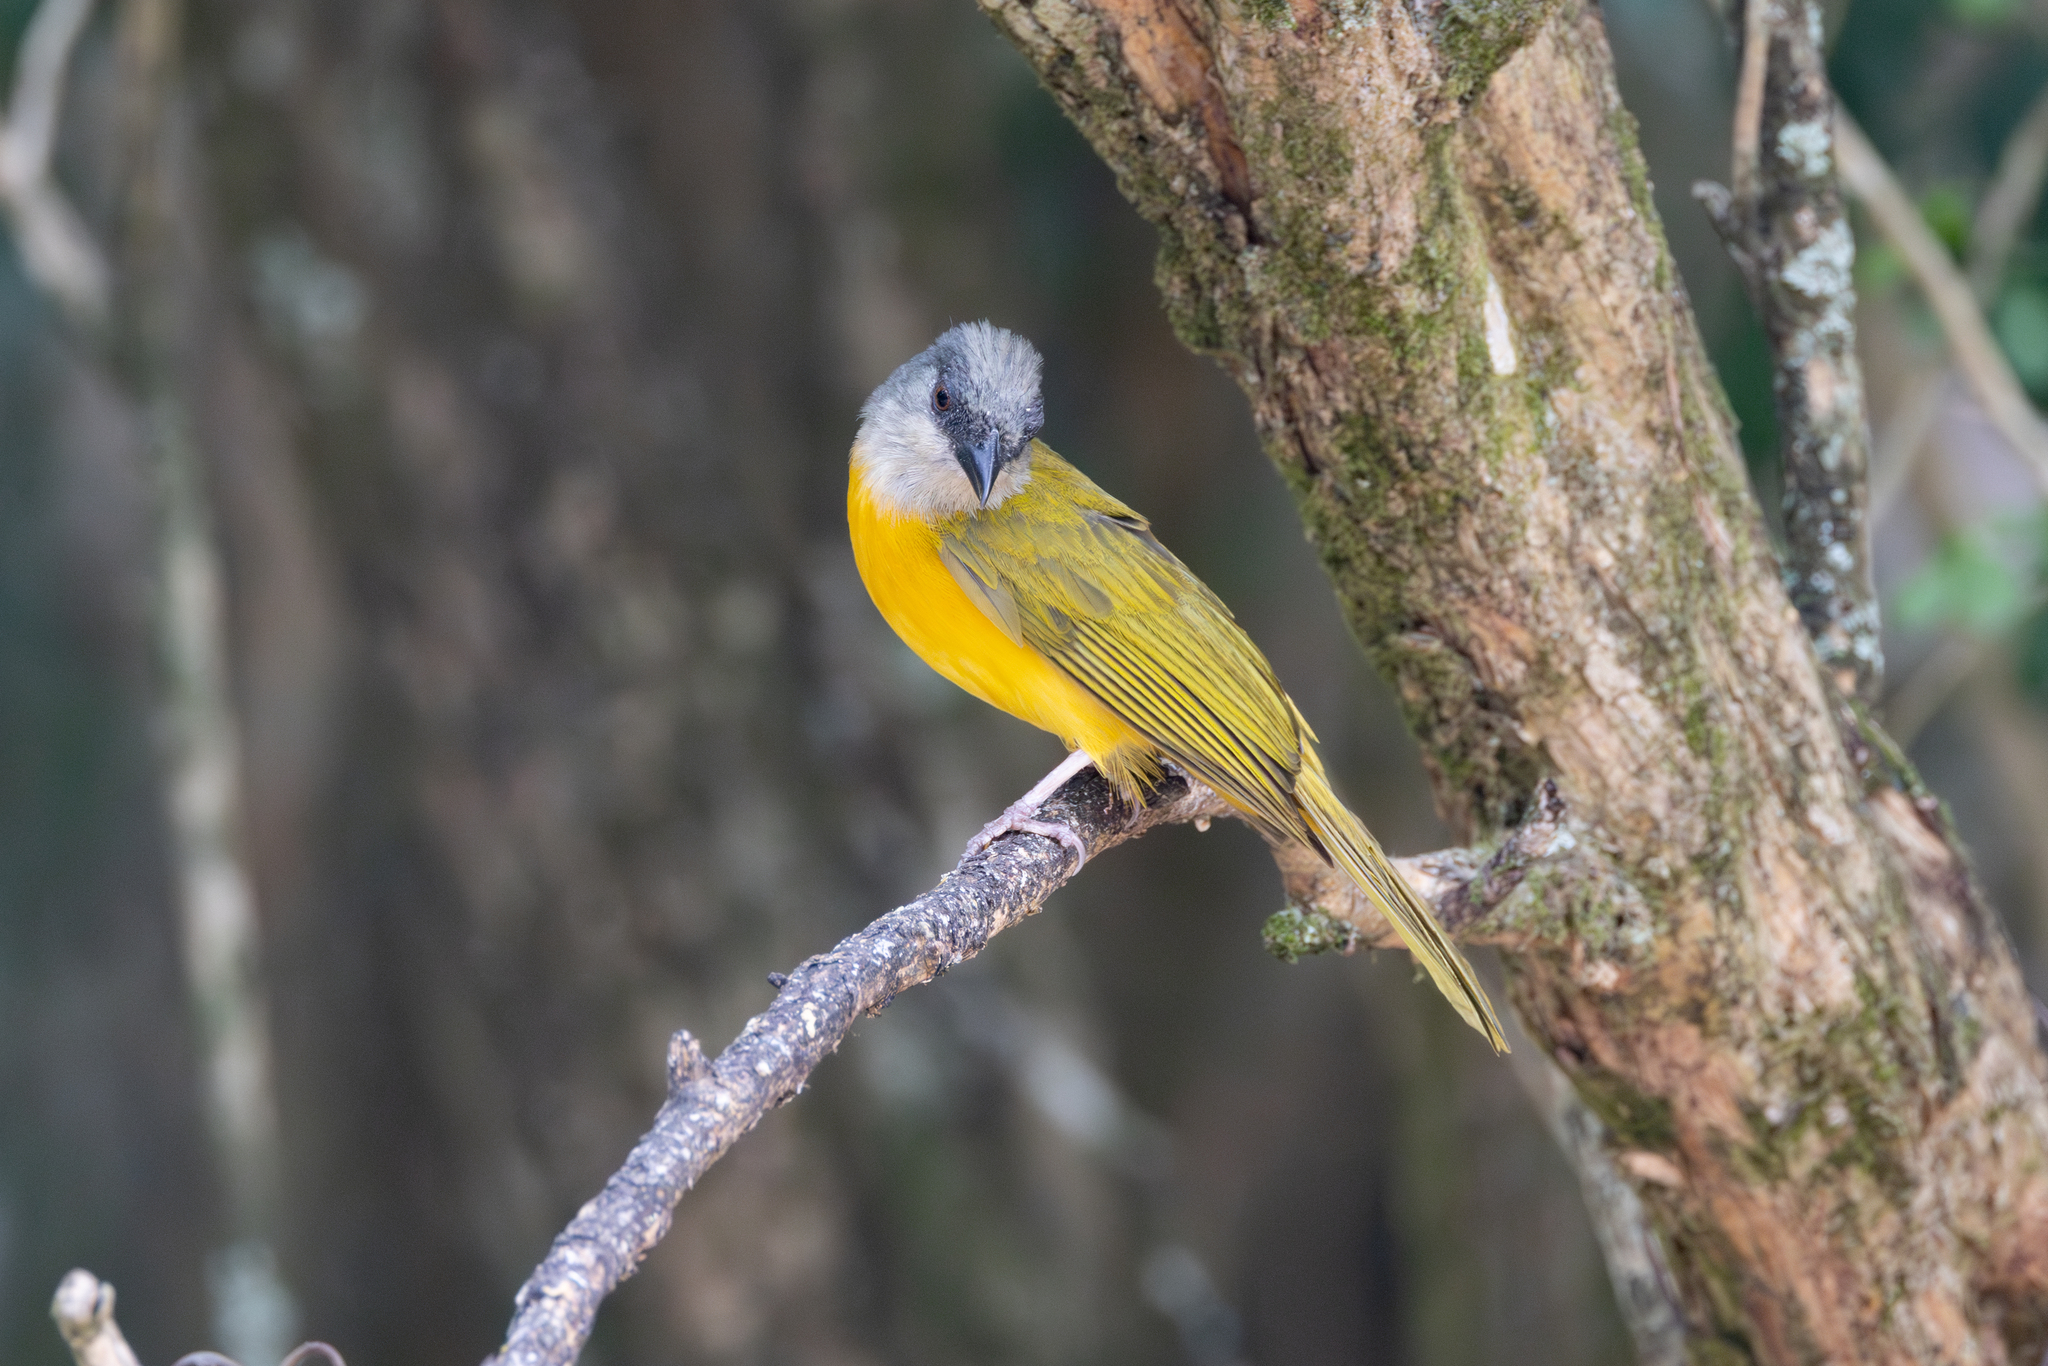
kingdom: Animalia
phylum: Chordata
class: Aves
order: Passeriformes
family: Thraupidae
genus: Eucometis
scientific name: Eucometis penicillata
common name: Grey-headed tanager
